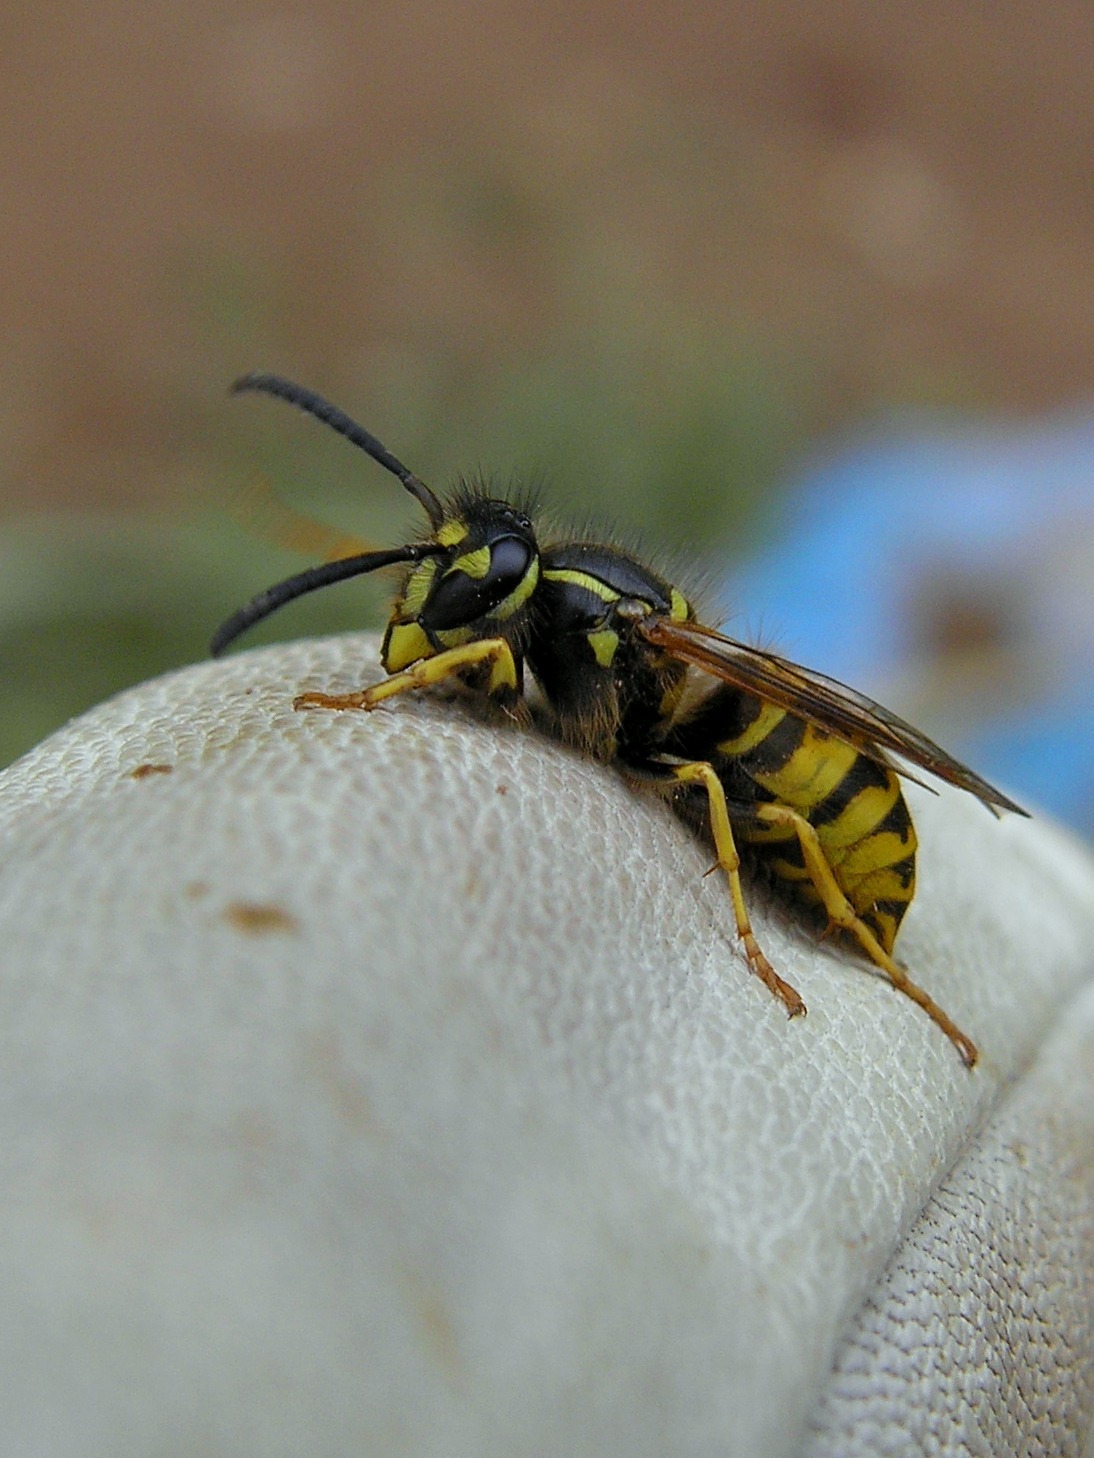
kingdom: Animalia
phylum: Arthropoda
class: Insecta
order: Hymenoptera
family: Vespidae
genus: Vespula
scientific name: Vespula vulgaris
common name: Common wasp
